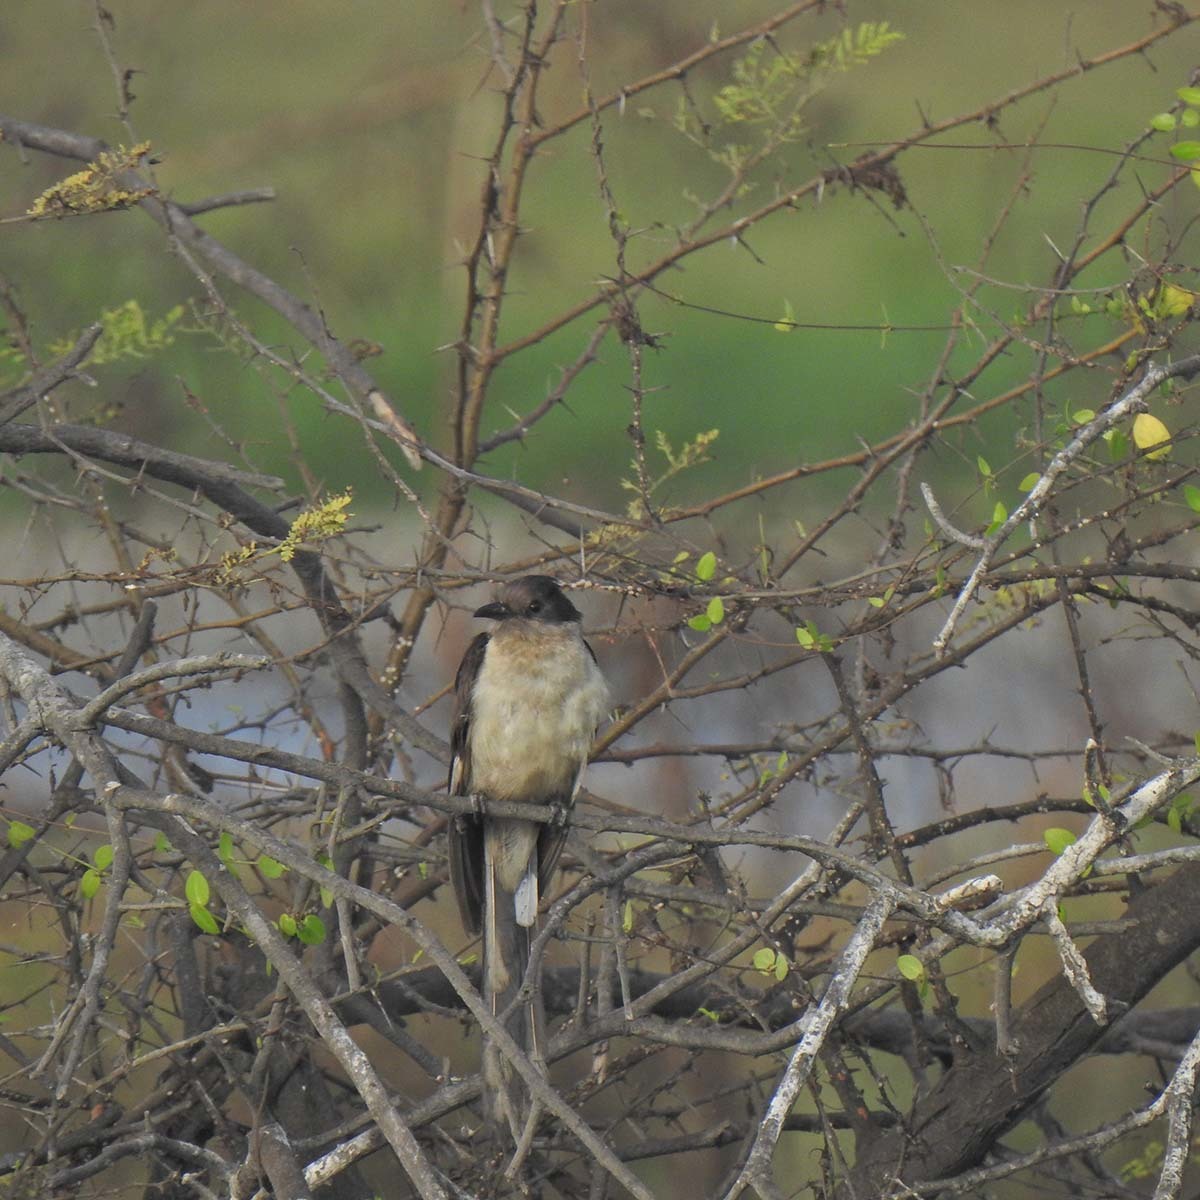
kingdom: Animalia
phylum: Chordata
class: Aves
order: Cuculiformes
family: Cuculidae
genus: Clamator
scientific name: Clamator jacobinus
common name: Jacobin cuckoo
